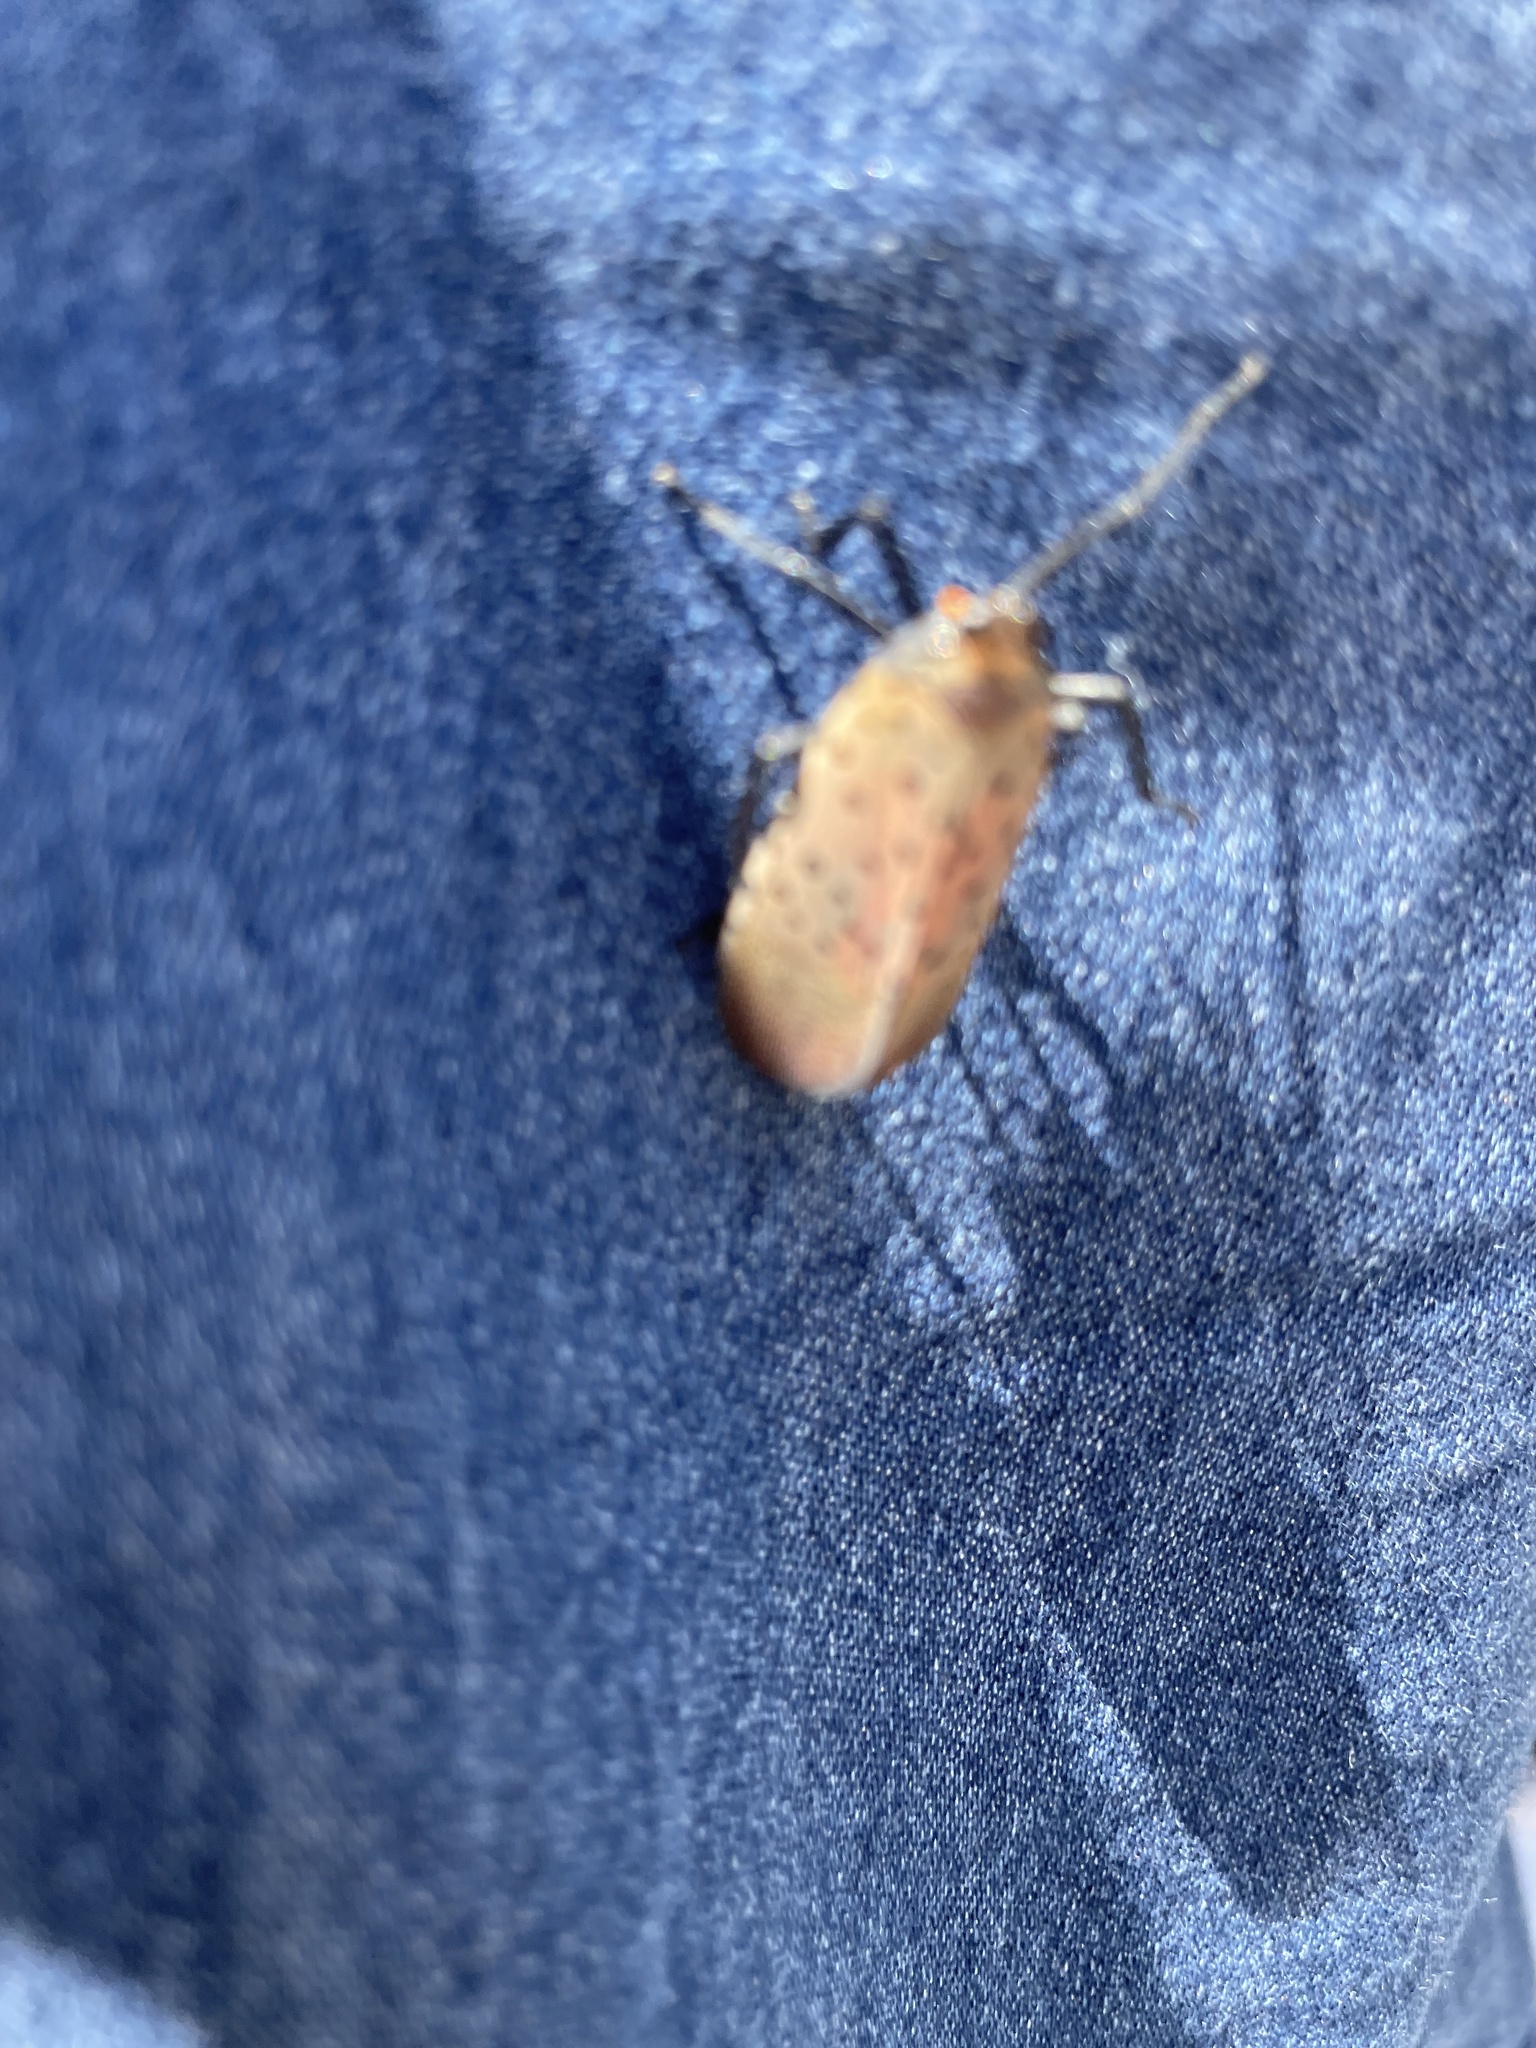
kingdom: Animalia
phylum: Arthropoda
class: Insecta
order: Hemiptera
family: Fulgoridae
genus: Lycorma
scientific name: Lycorma delicatula
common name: Spotted lanternfly
